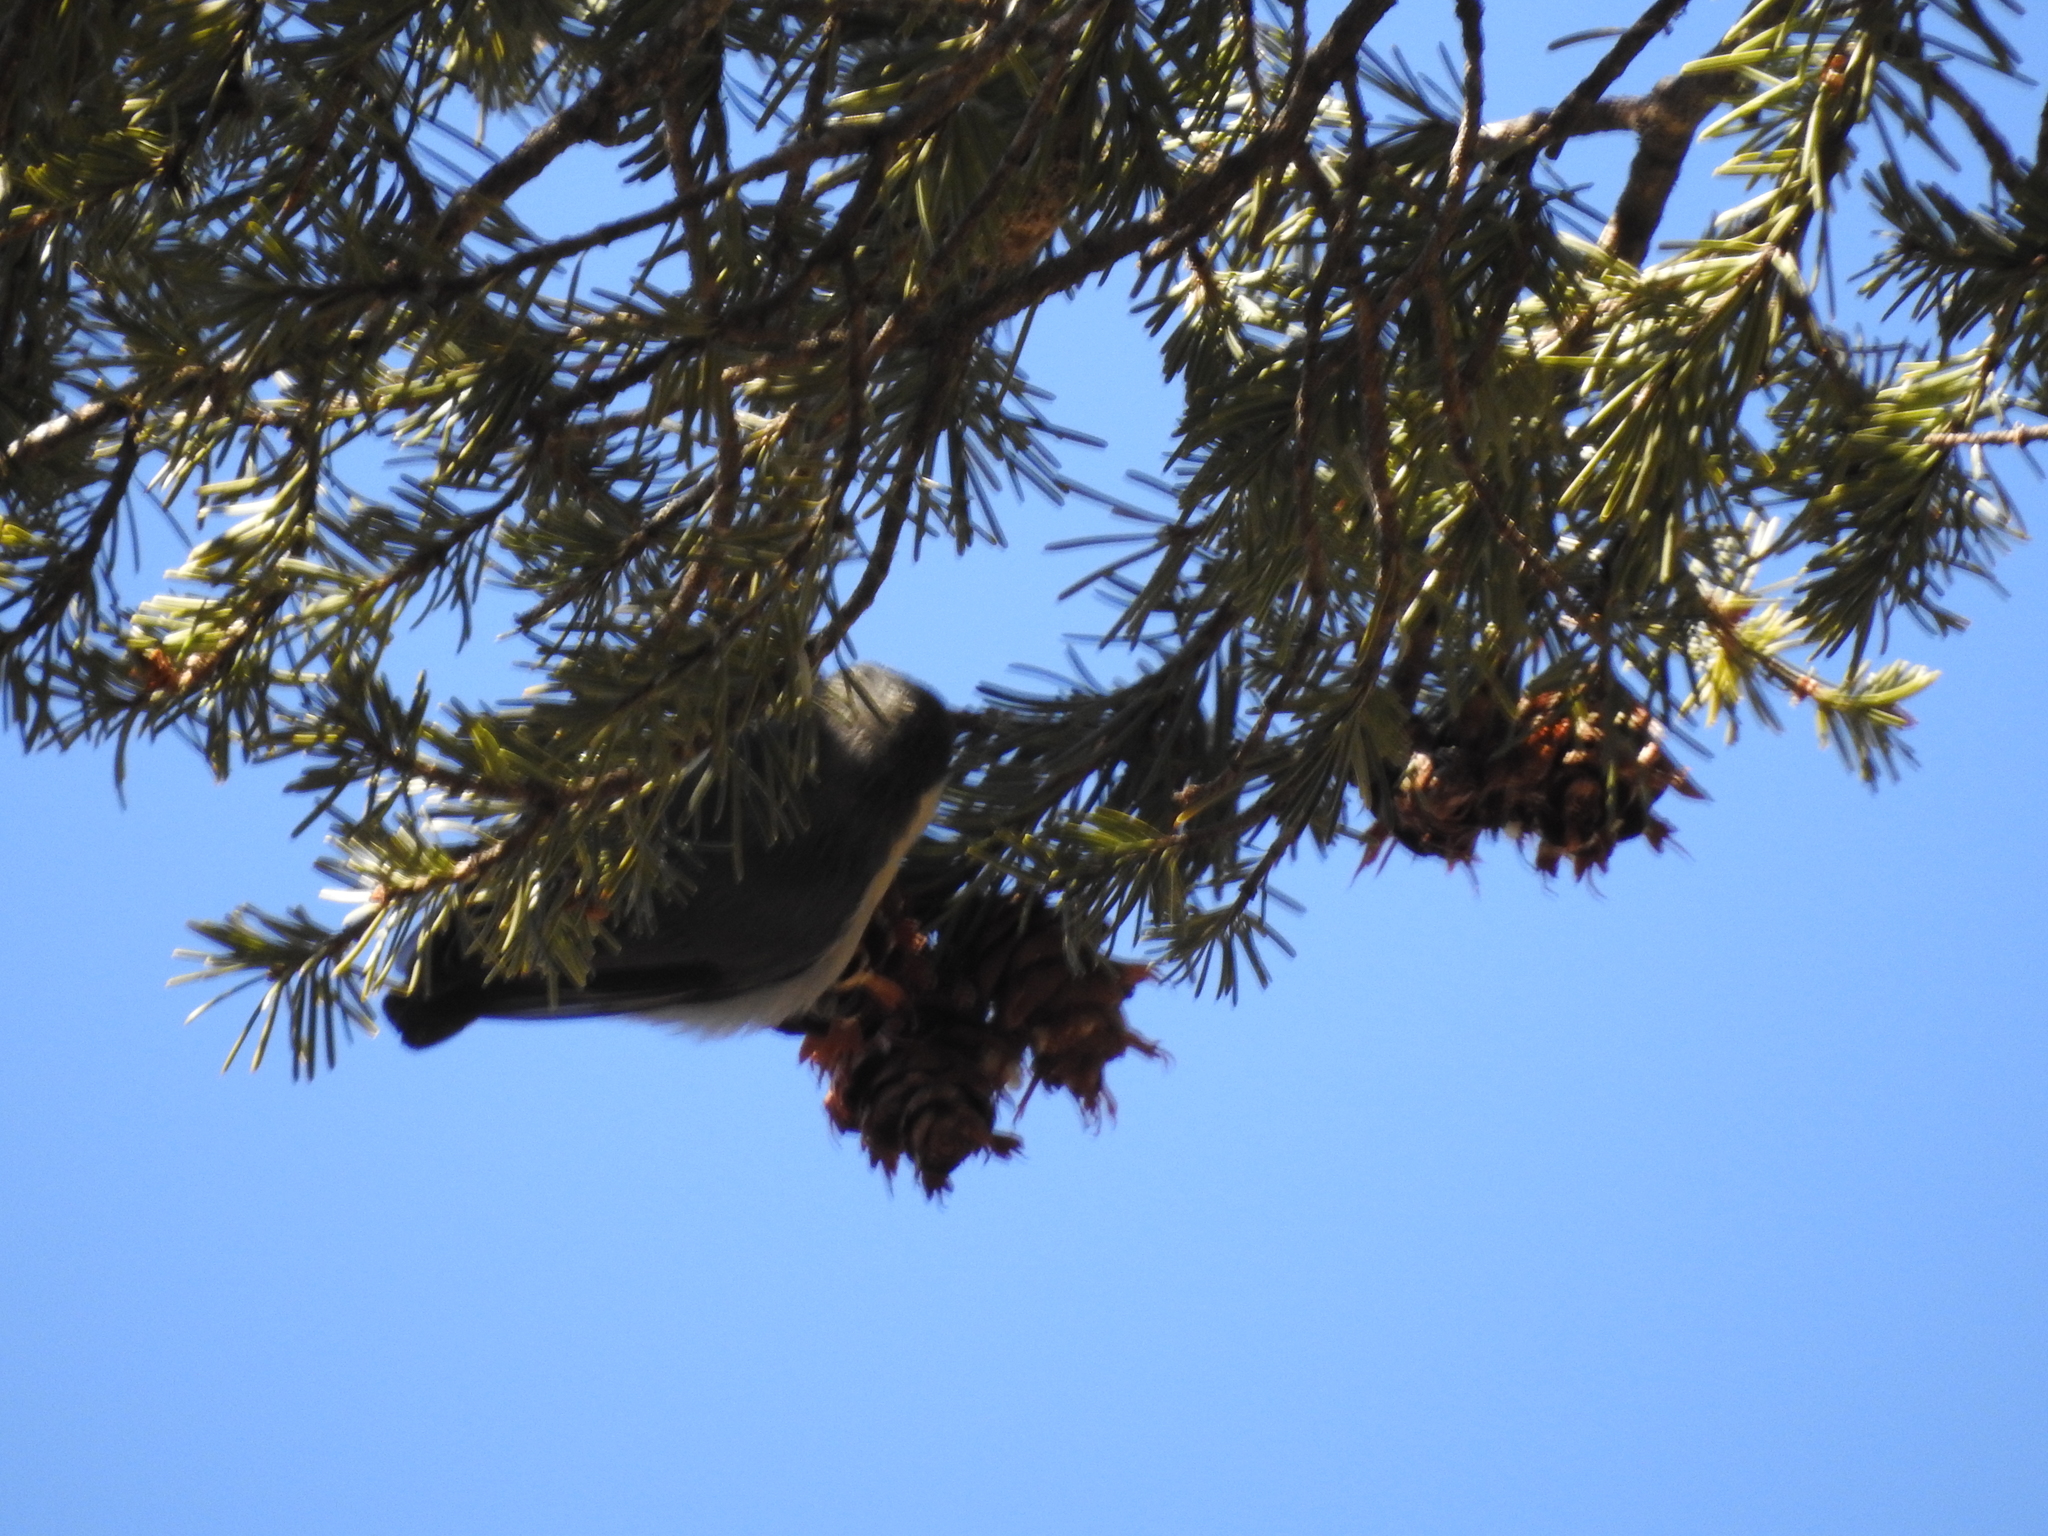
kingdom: Animalia
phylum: Chordata
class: Aves
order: Passeriformes
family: Sittidae
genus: Sitta
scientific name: Sitta pygmaea
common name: Pygmy nuthatch
